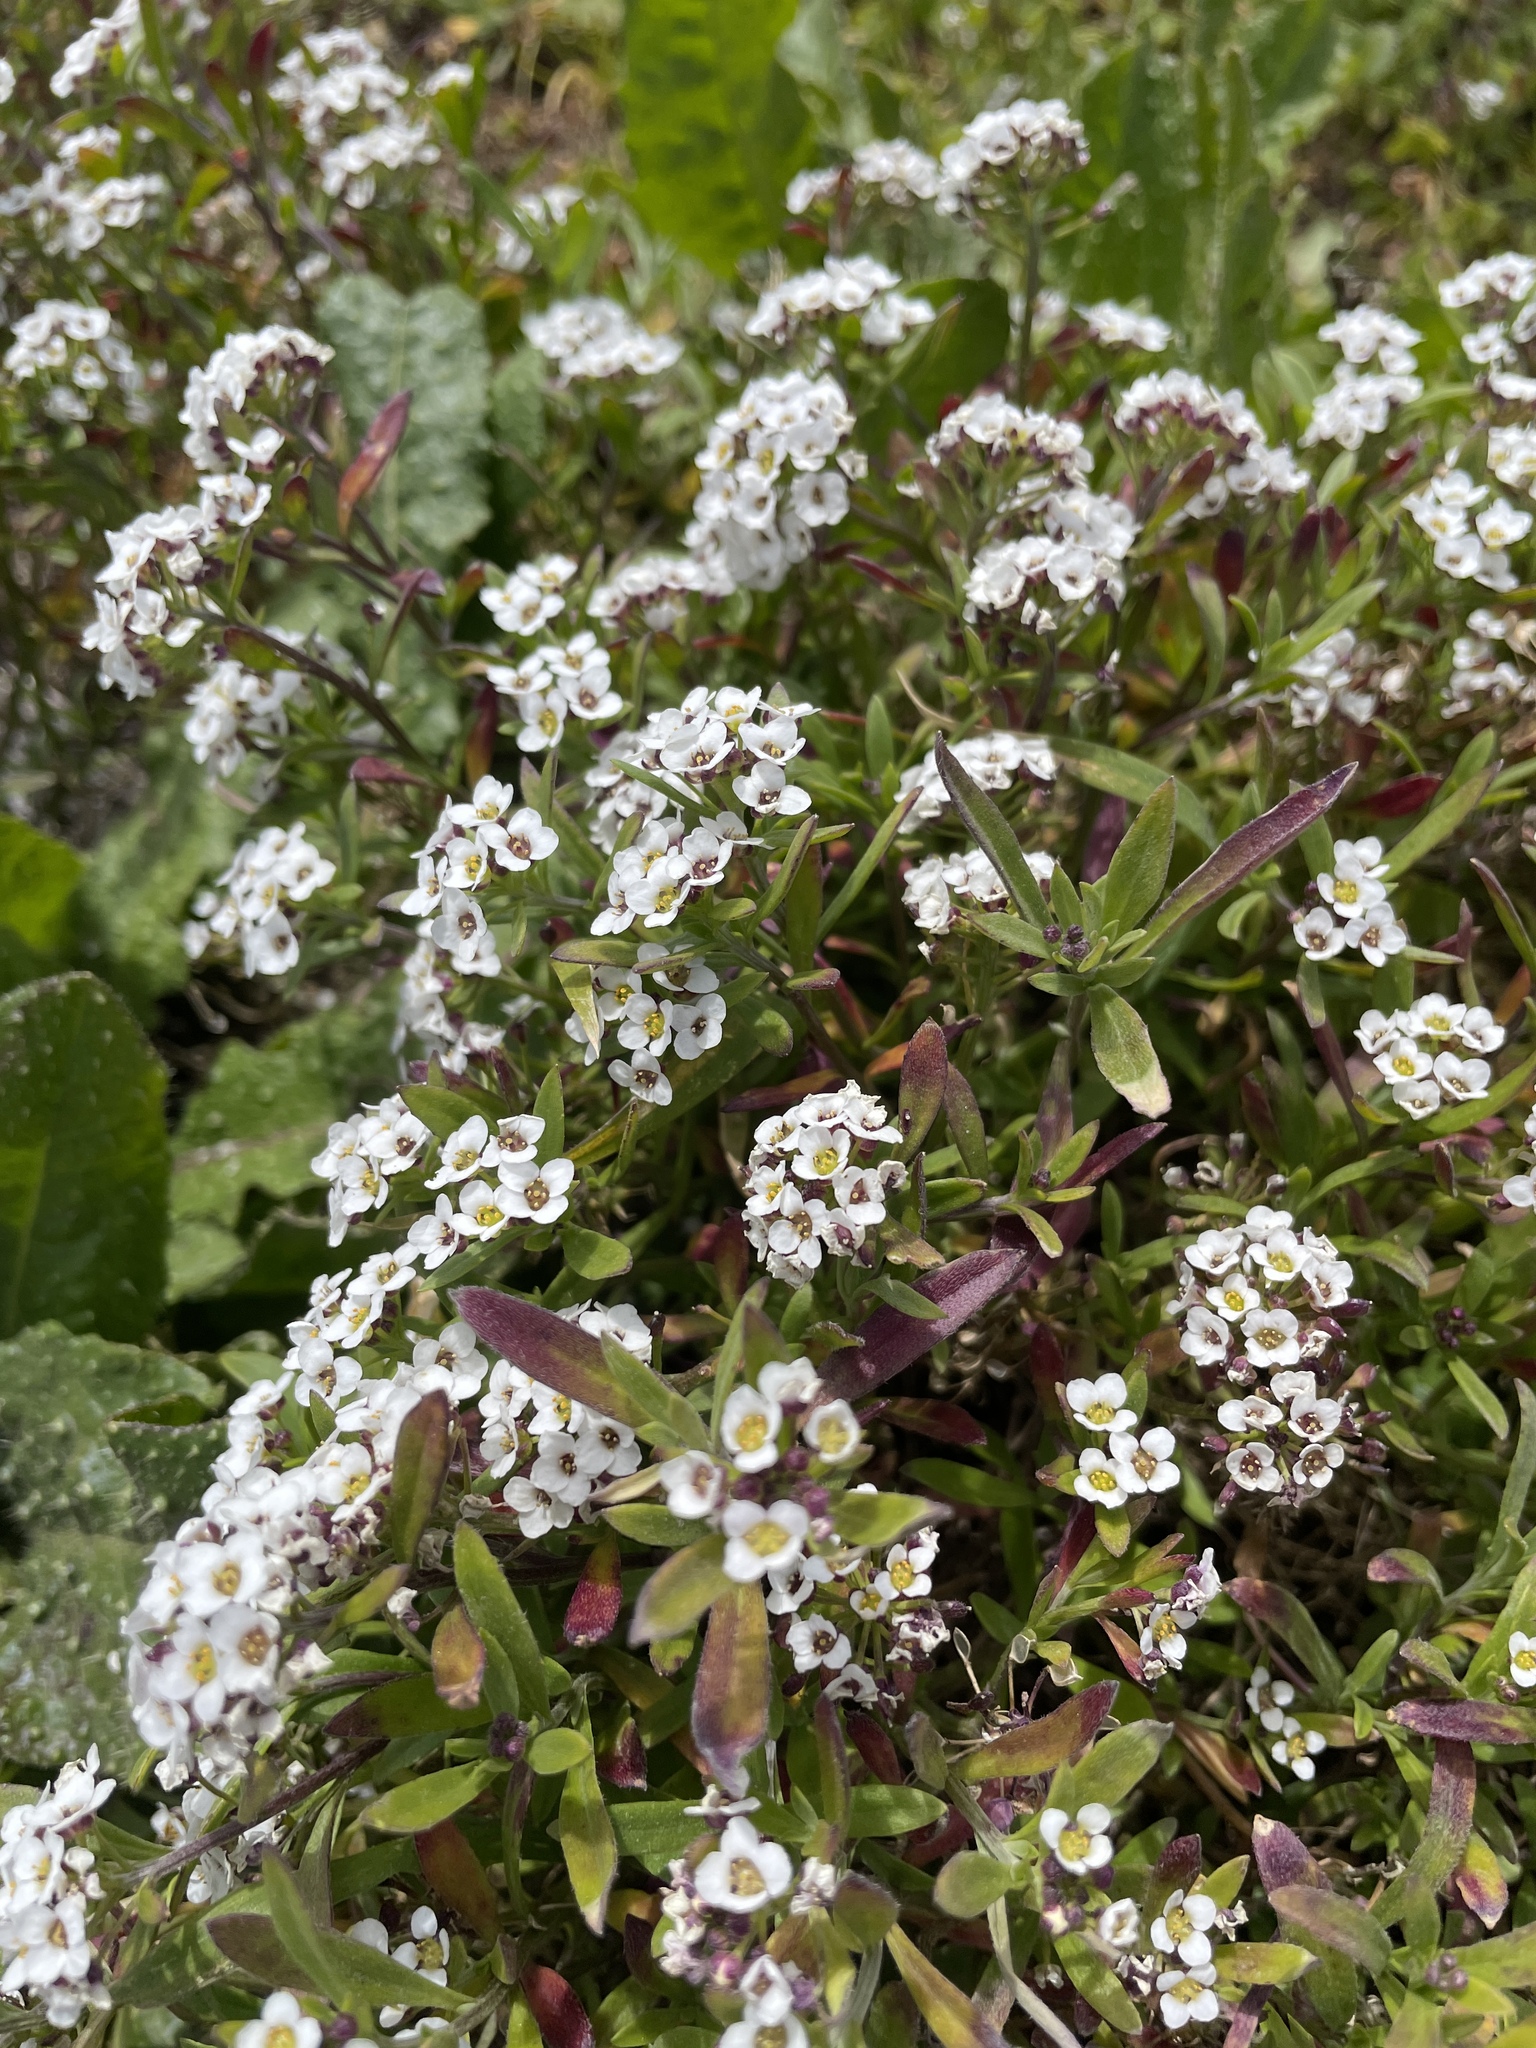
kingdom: Plantae
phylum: Tracheophyta
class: Magnoliopsida
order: Brassicales
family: Brassicaceae
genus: Lobularia
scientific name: Lobularia maritima
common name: Sweet alison
